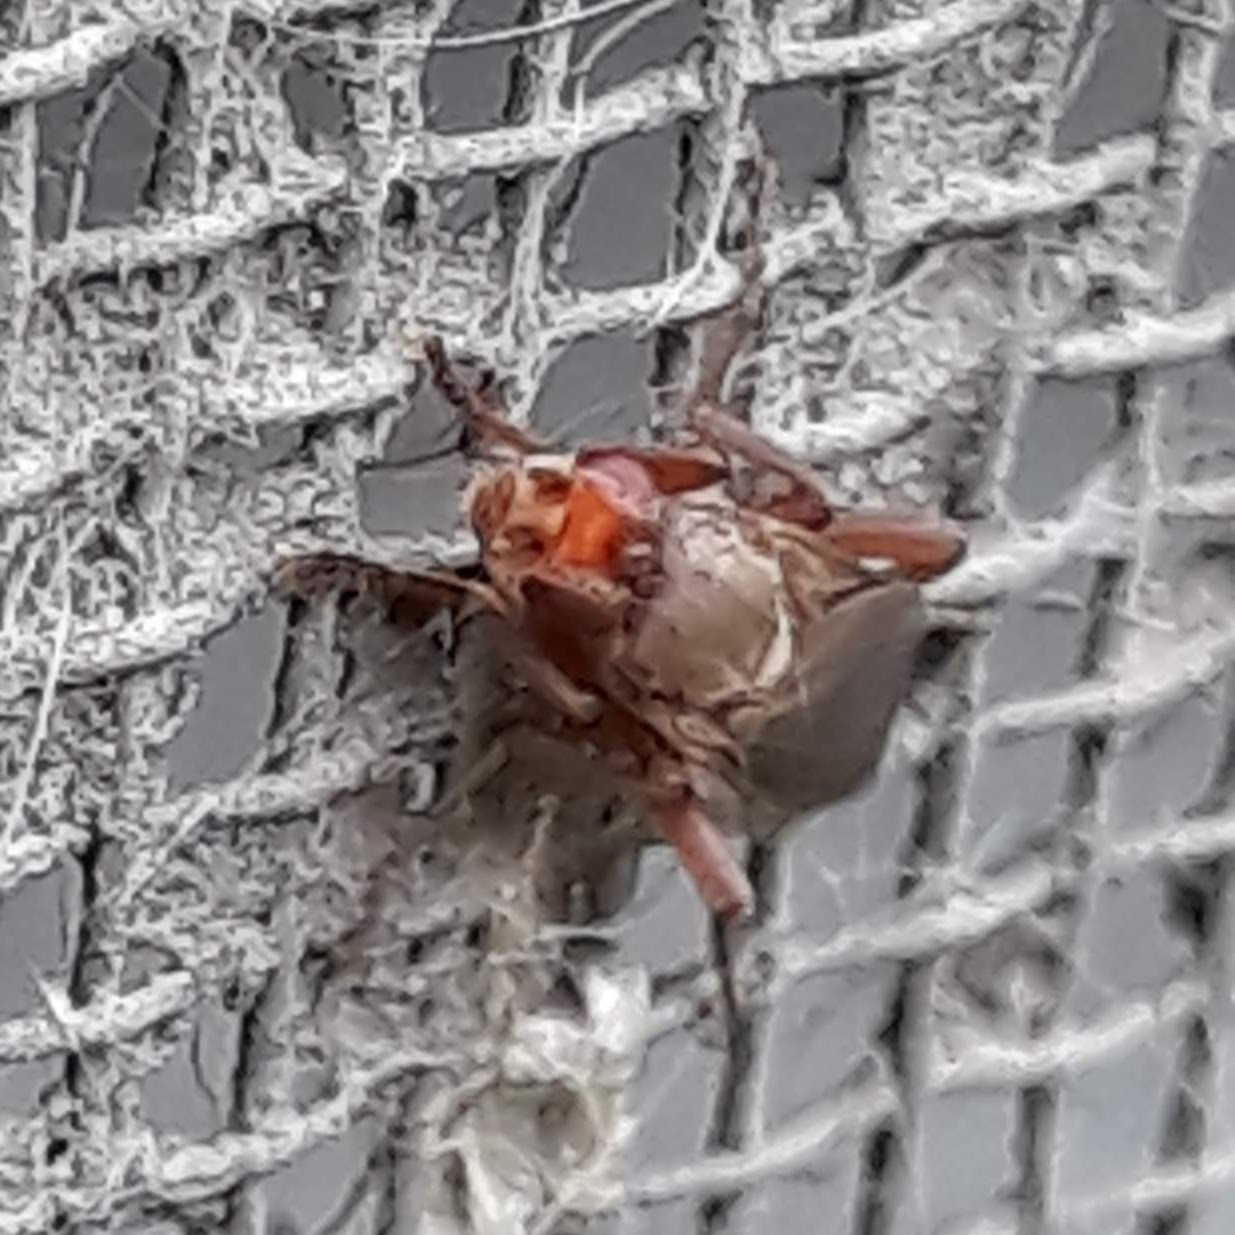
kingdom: Animalia
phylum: Arthropoda
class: Insecta
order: Diptera
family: Heleomyzidae
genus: Lutomyia
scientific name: Lutomyia spurca
